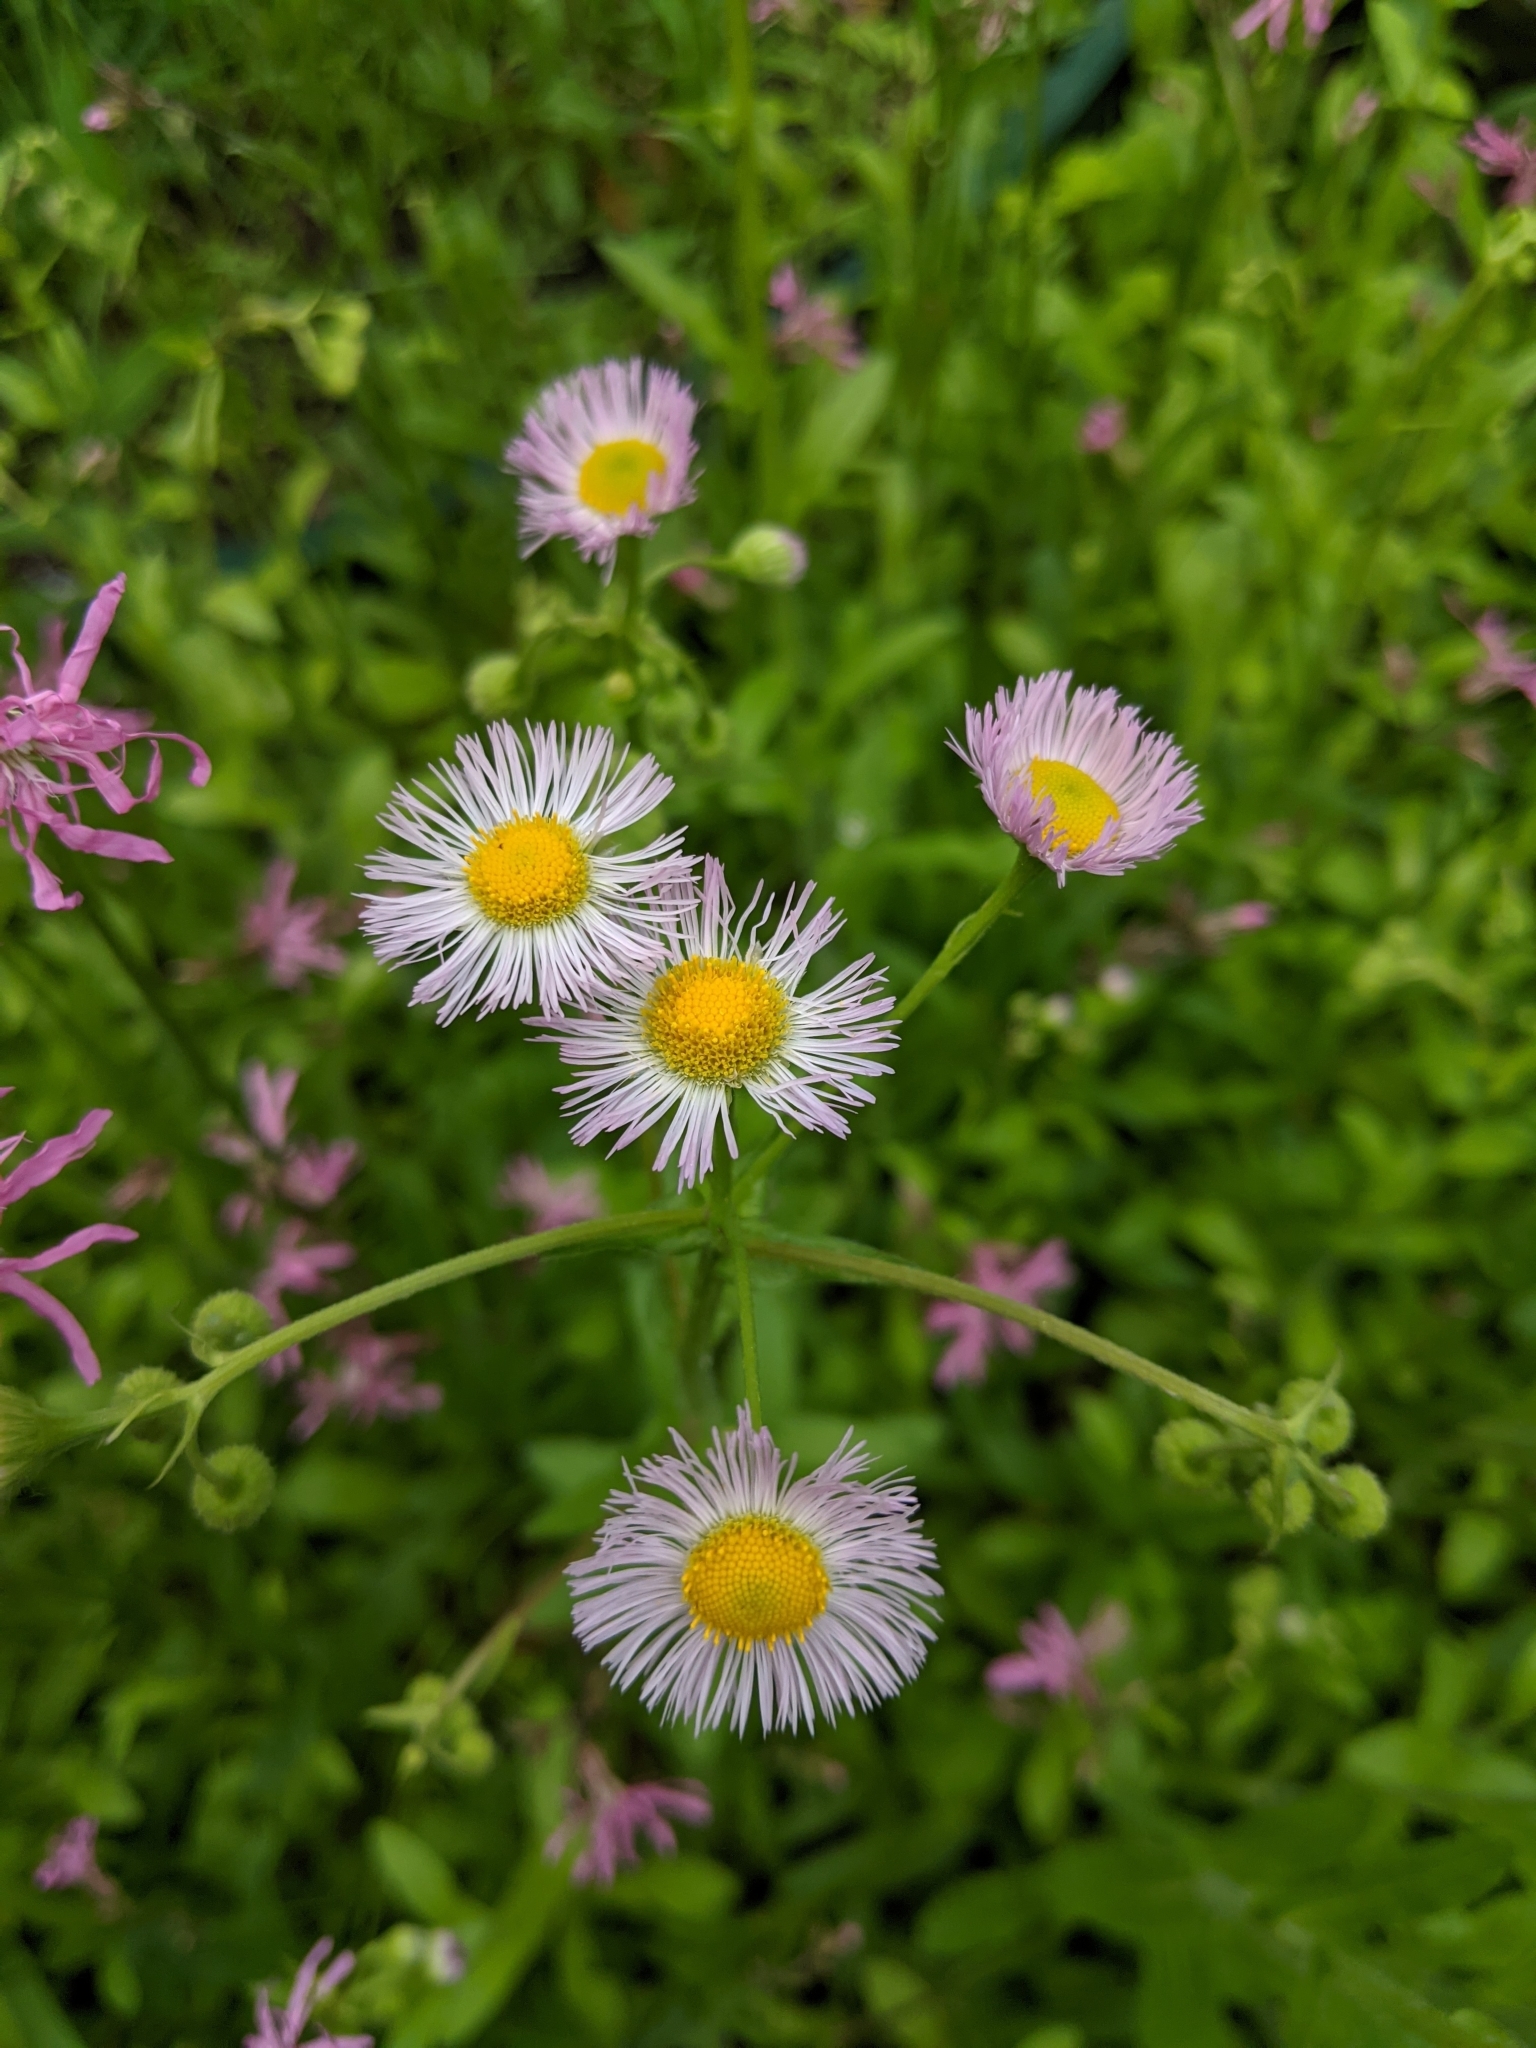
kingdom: Plantae
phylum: Tracheophyta
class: Magnoliopsida
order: Asterales
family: Asteraceae
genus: Erigeron
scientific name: Erigeron philadelphicus
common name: Robin's-plantain
